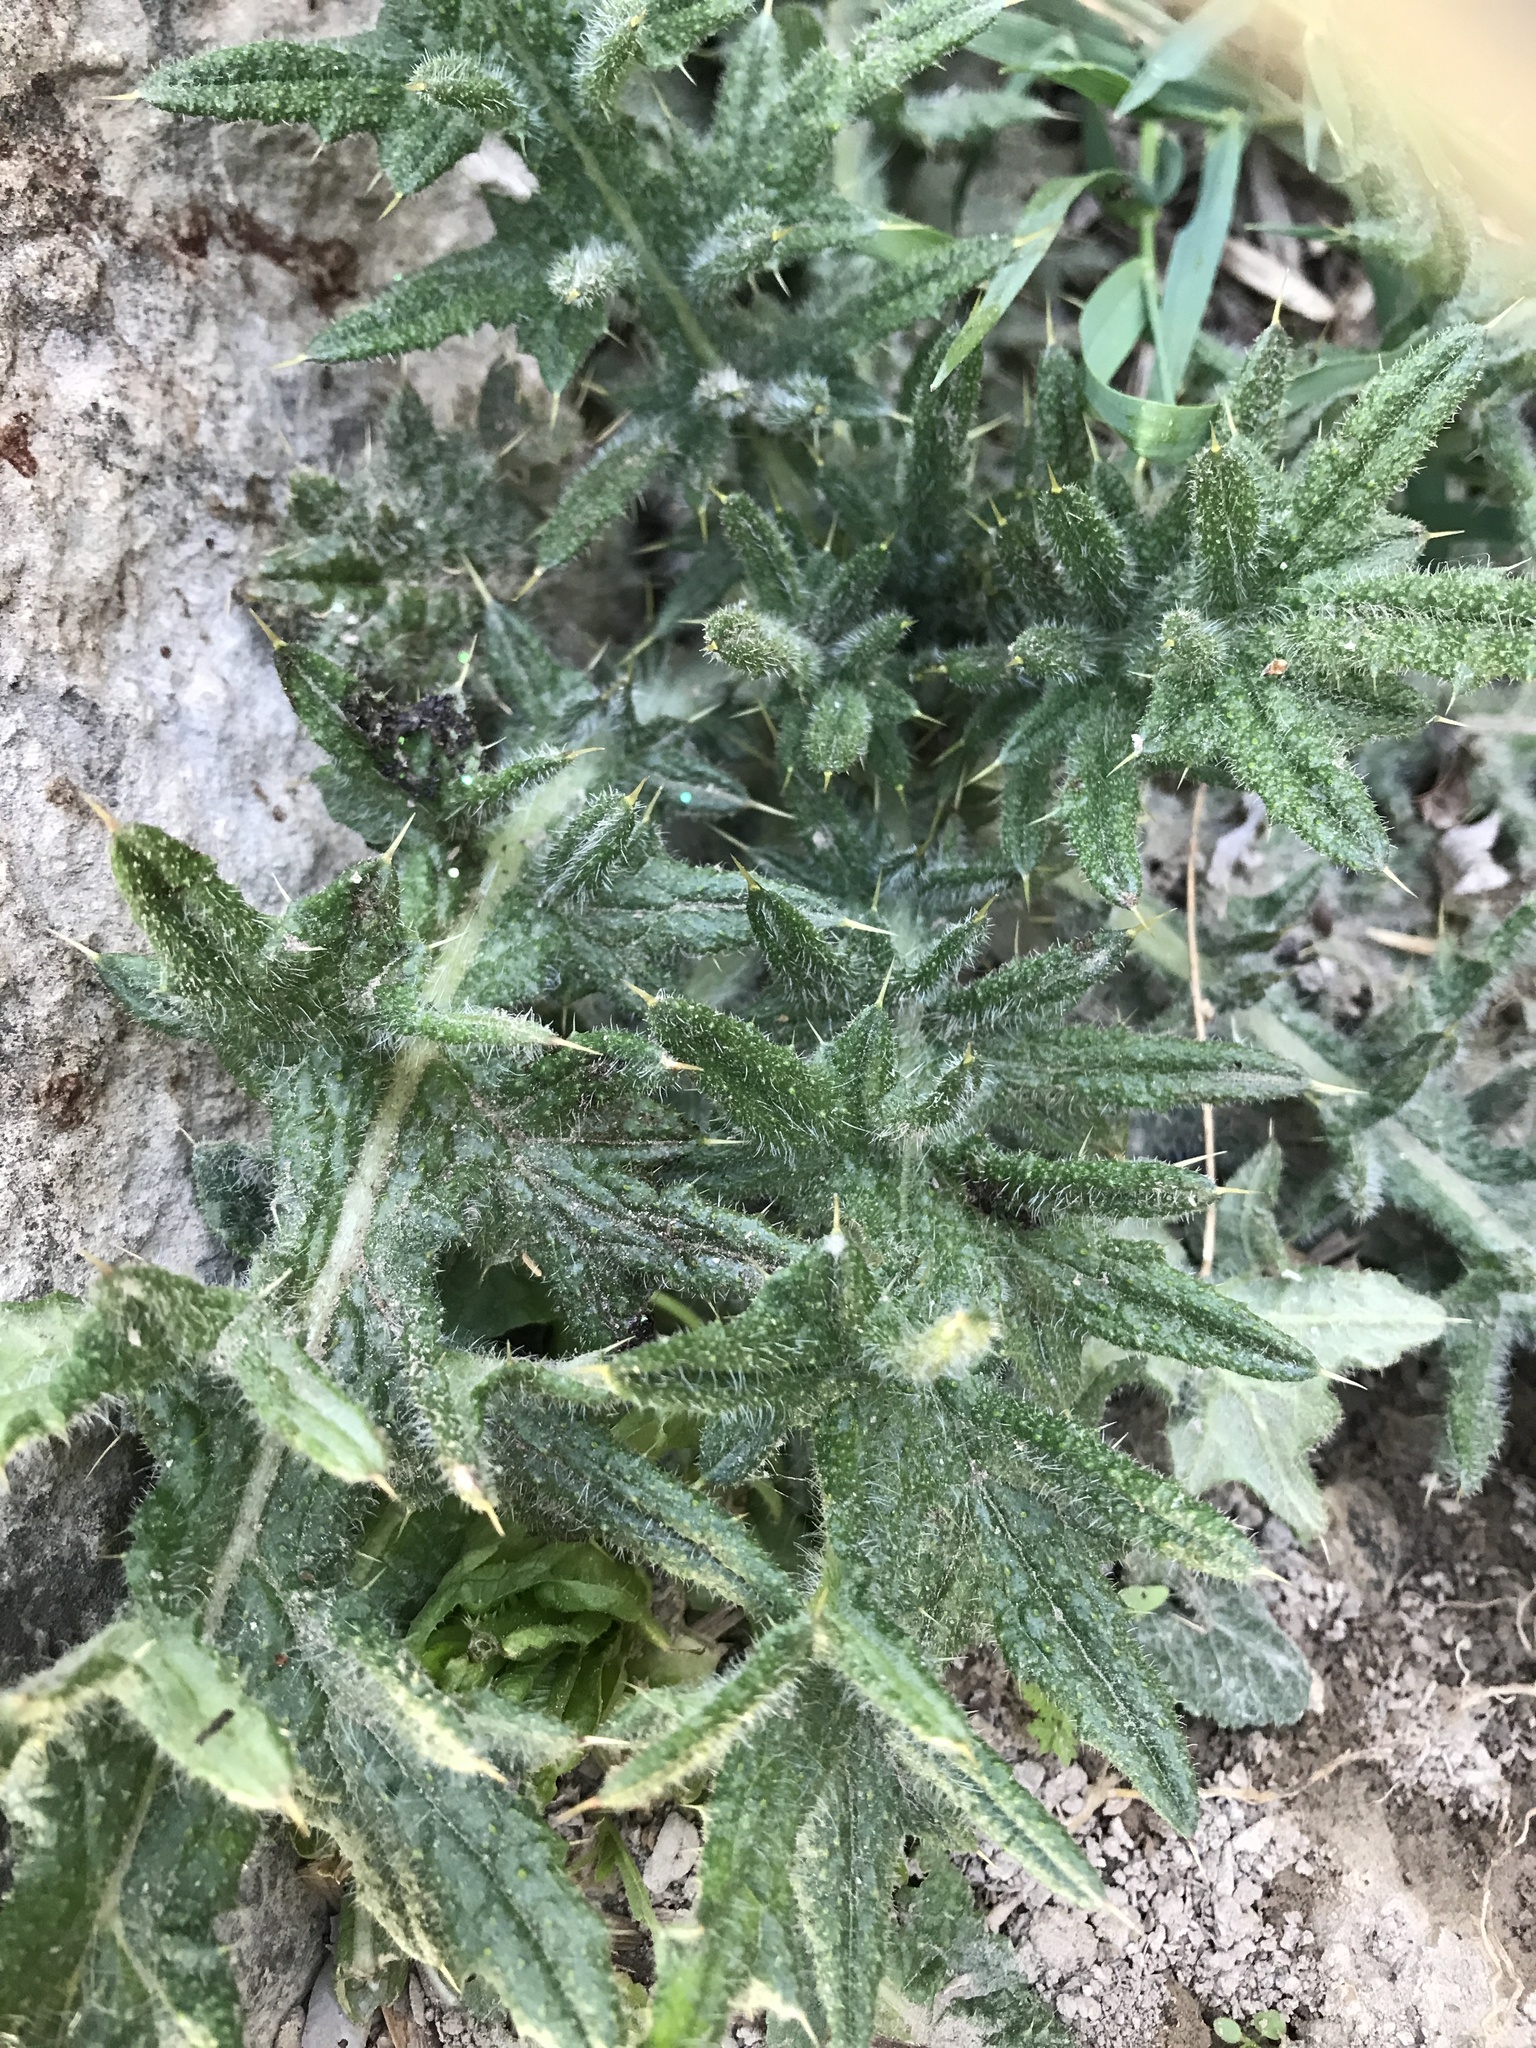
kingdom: Plantae
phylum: Tracheophyta
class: Magnoliopsida
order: Asterales
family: Asteraceae
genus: Cirsium
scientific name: Cirsium vulgare
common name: Bull thistle
